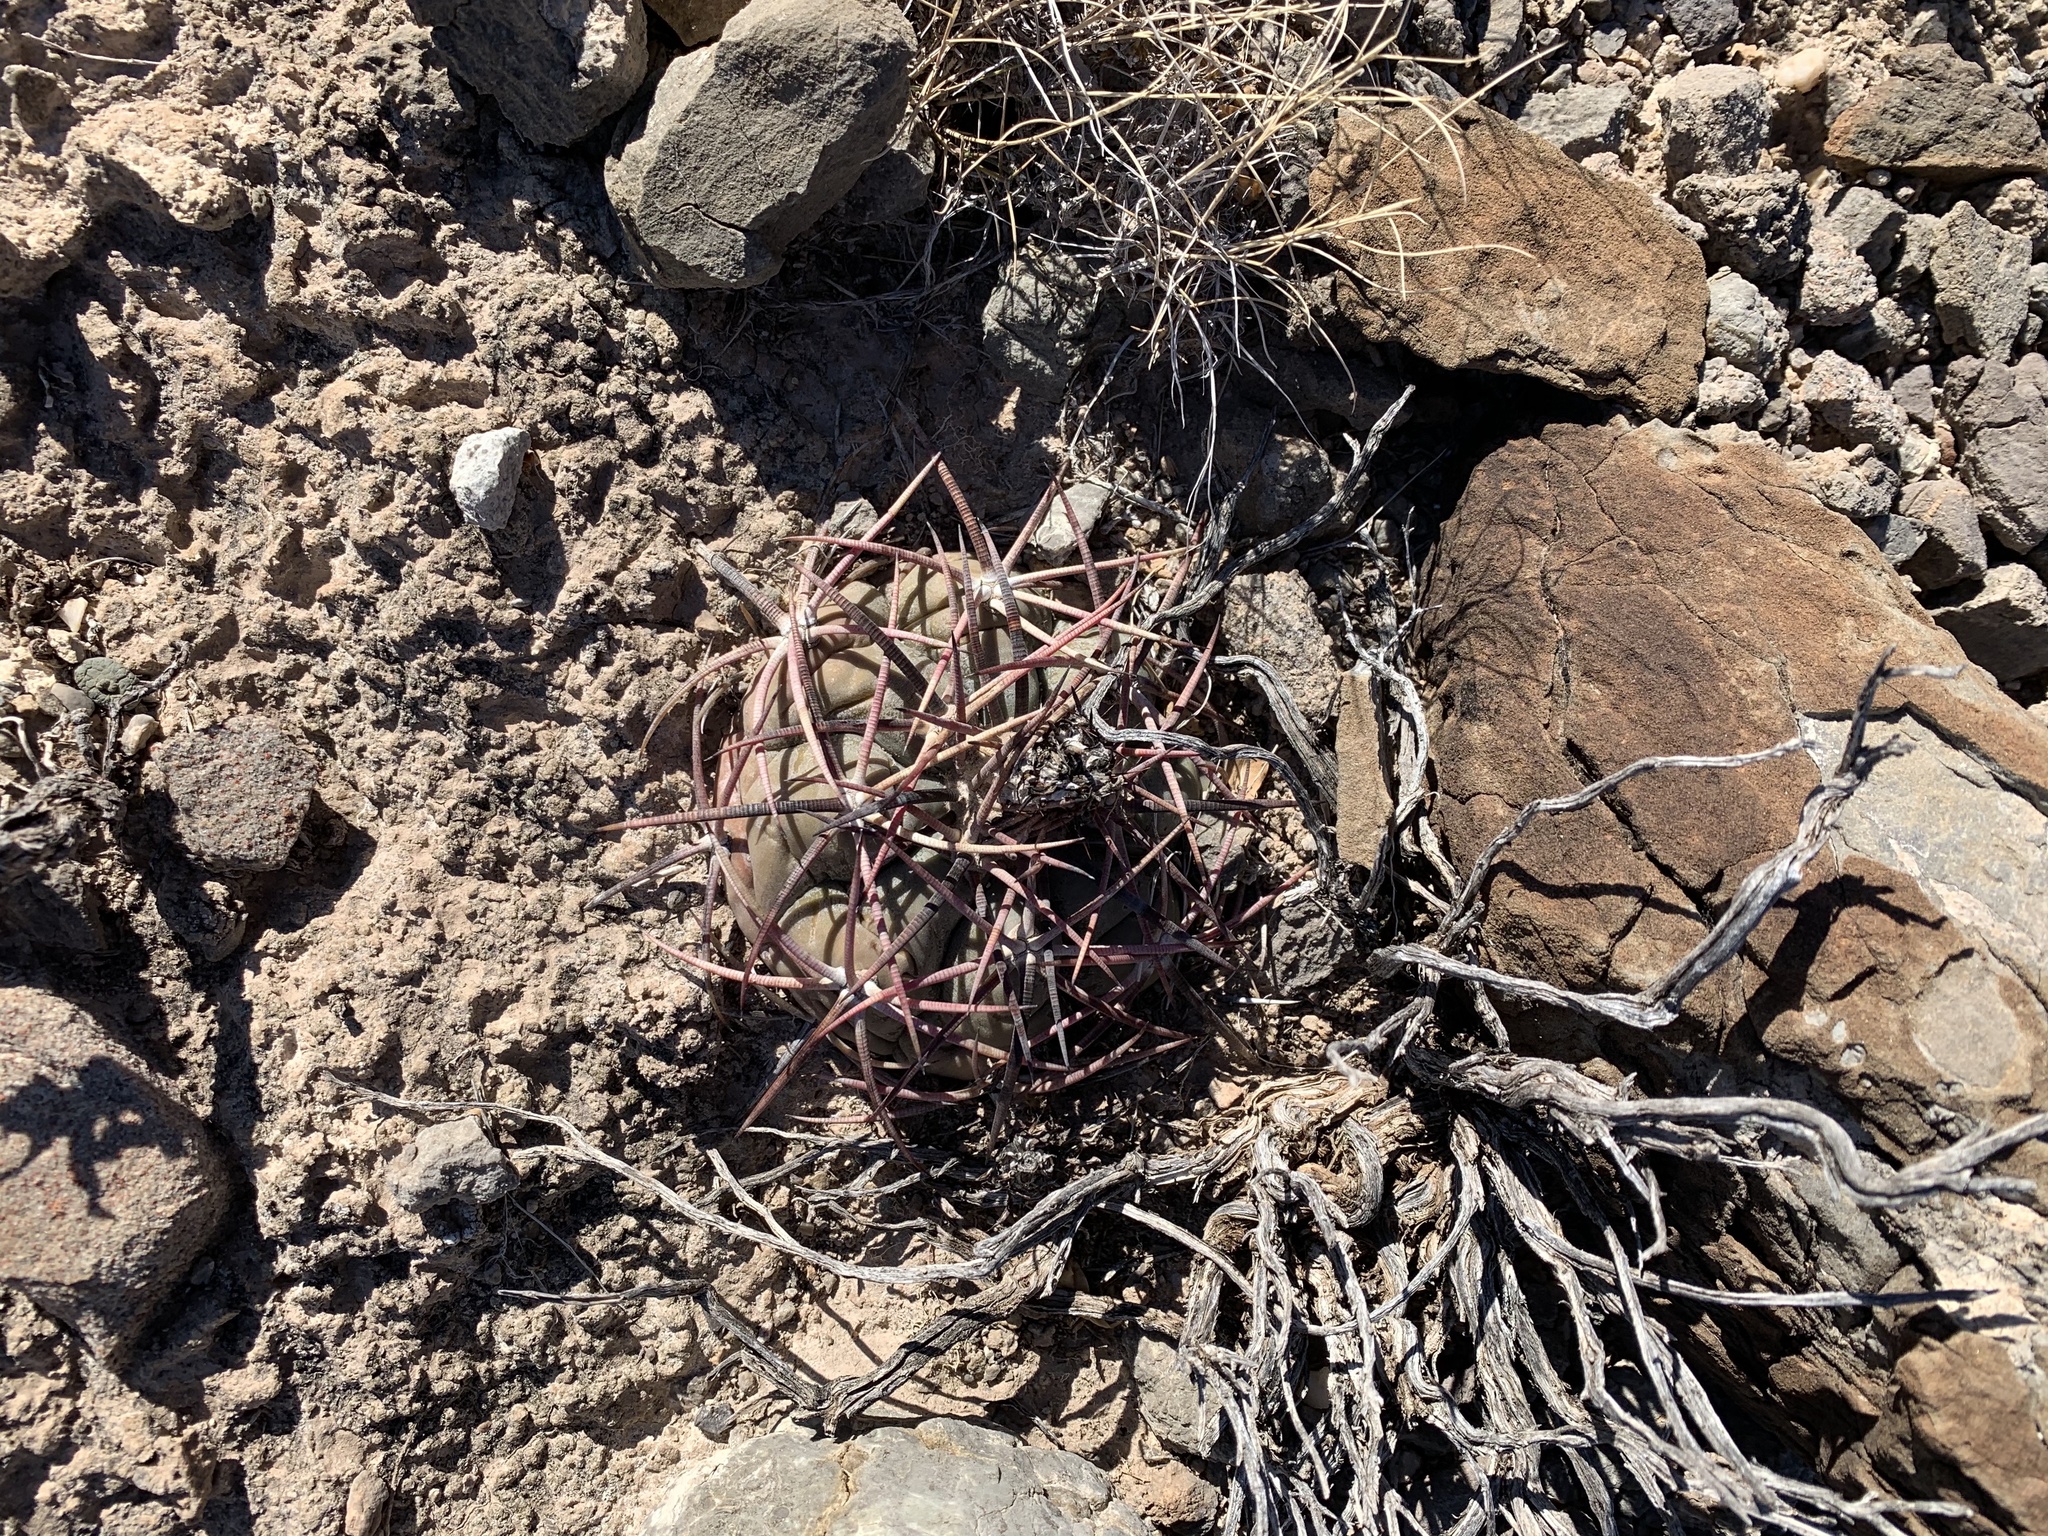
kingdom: Plantae
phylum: Tracheophyta
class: Magnoliopsida
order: Caryophyllales
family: Cactaceae
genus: Echinocactus
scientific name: Echinocactus horizonthalonius
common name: Devilshead
